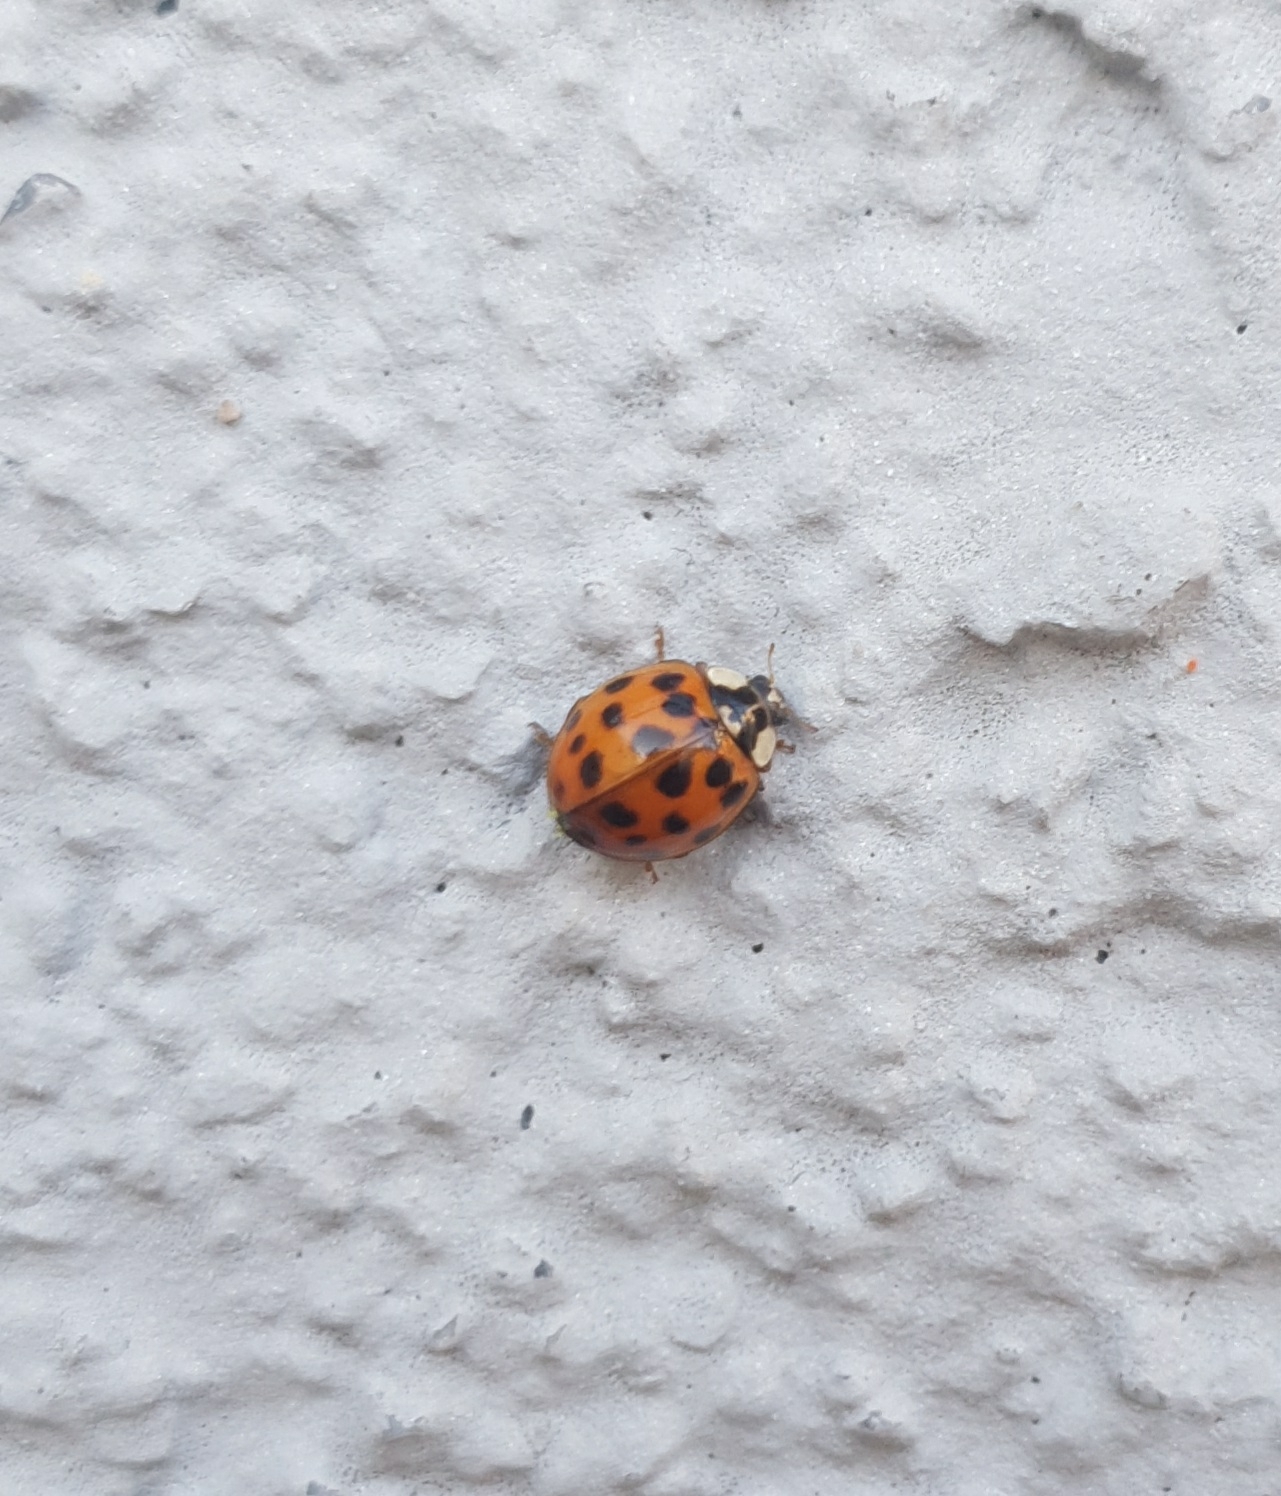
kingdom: Animalia
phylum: Arthropoda
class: Insecta
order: Coleoptera
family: Coccinellidae
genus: Harmonia
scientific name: Harmonia axyridis
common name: Harlequin ladybird
